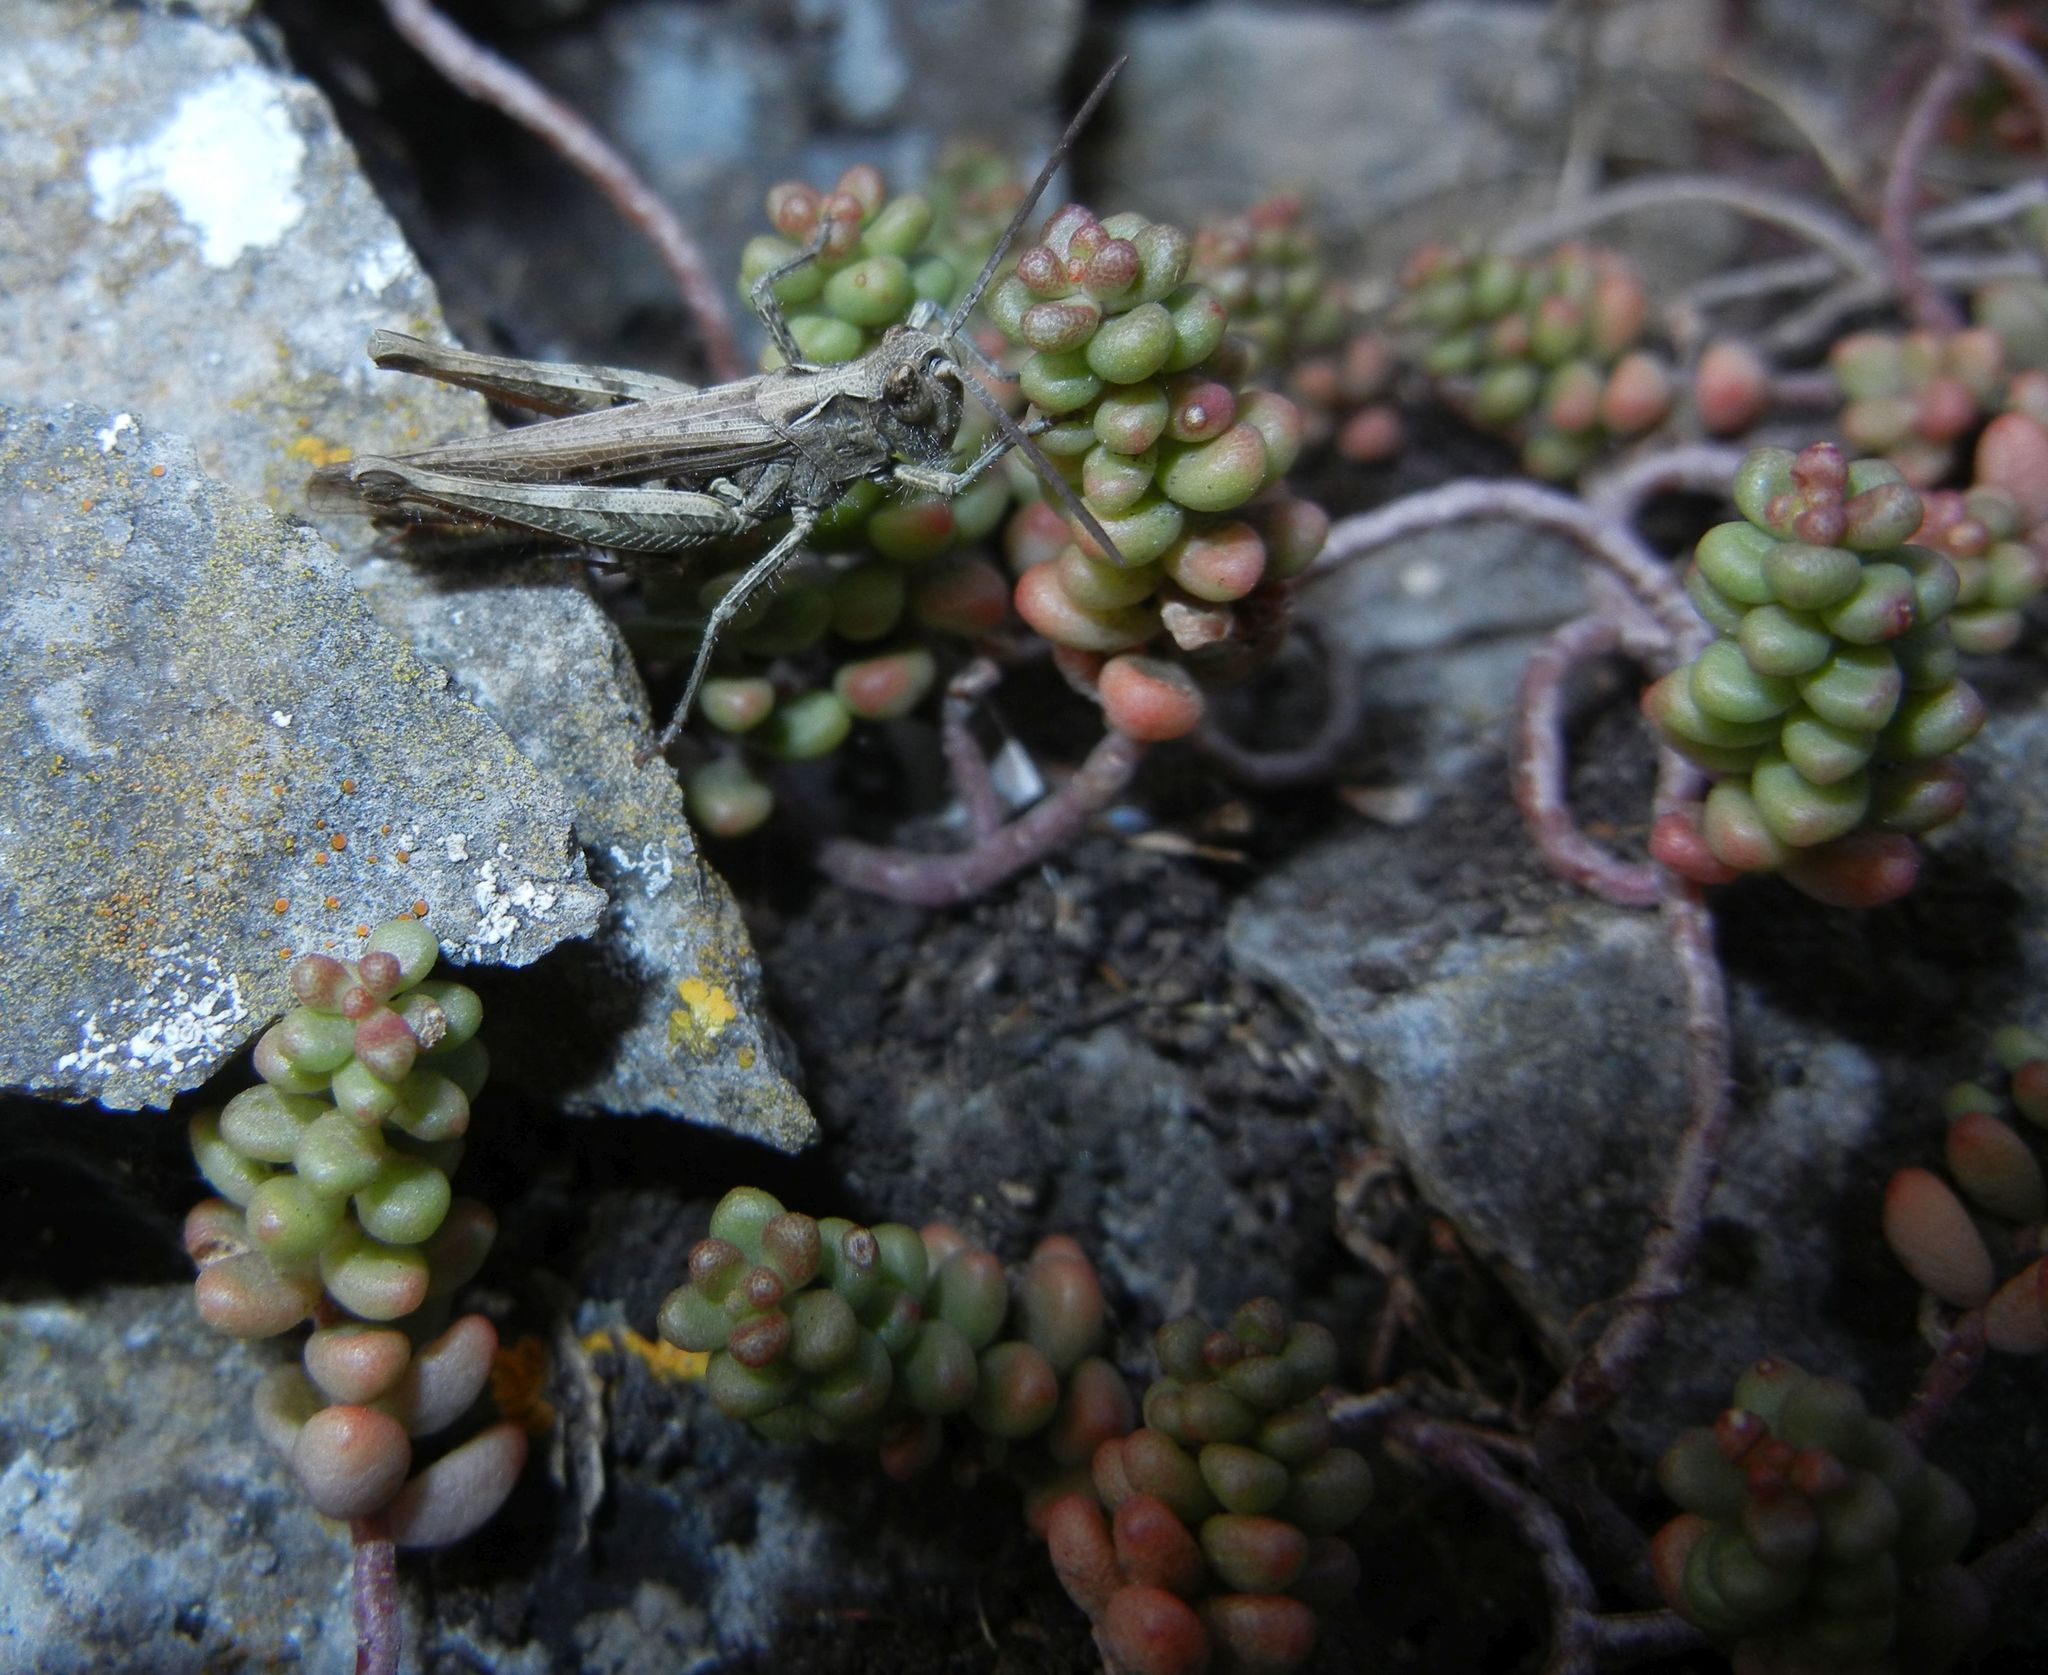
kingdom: Plantae
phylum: Tracheophyta
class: Magnoliopsida
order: Saxifragales
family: Crassulaceae
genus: Sedum
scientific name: Sedum album
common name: White stonecrop
